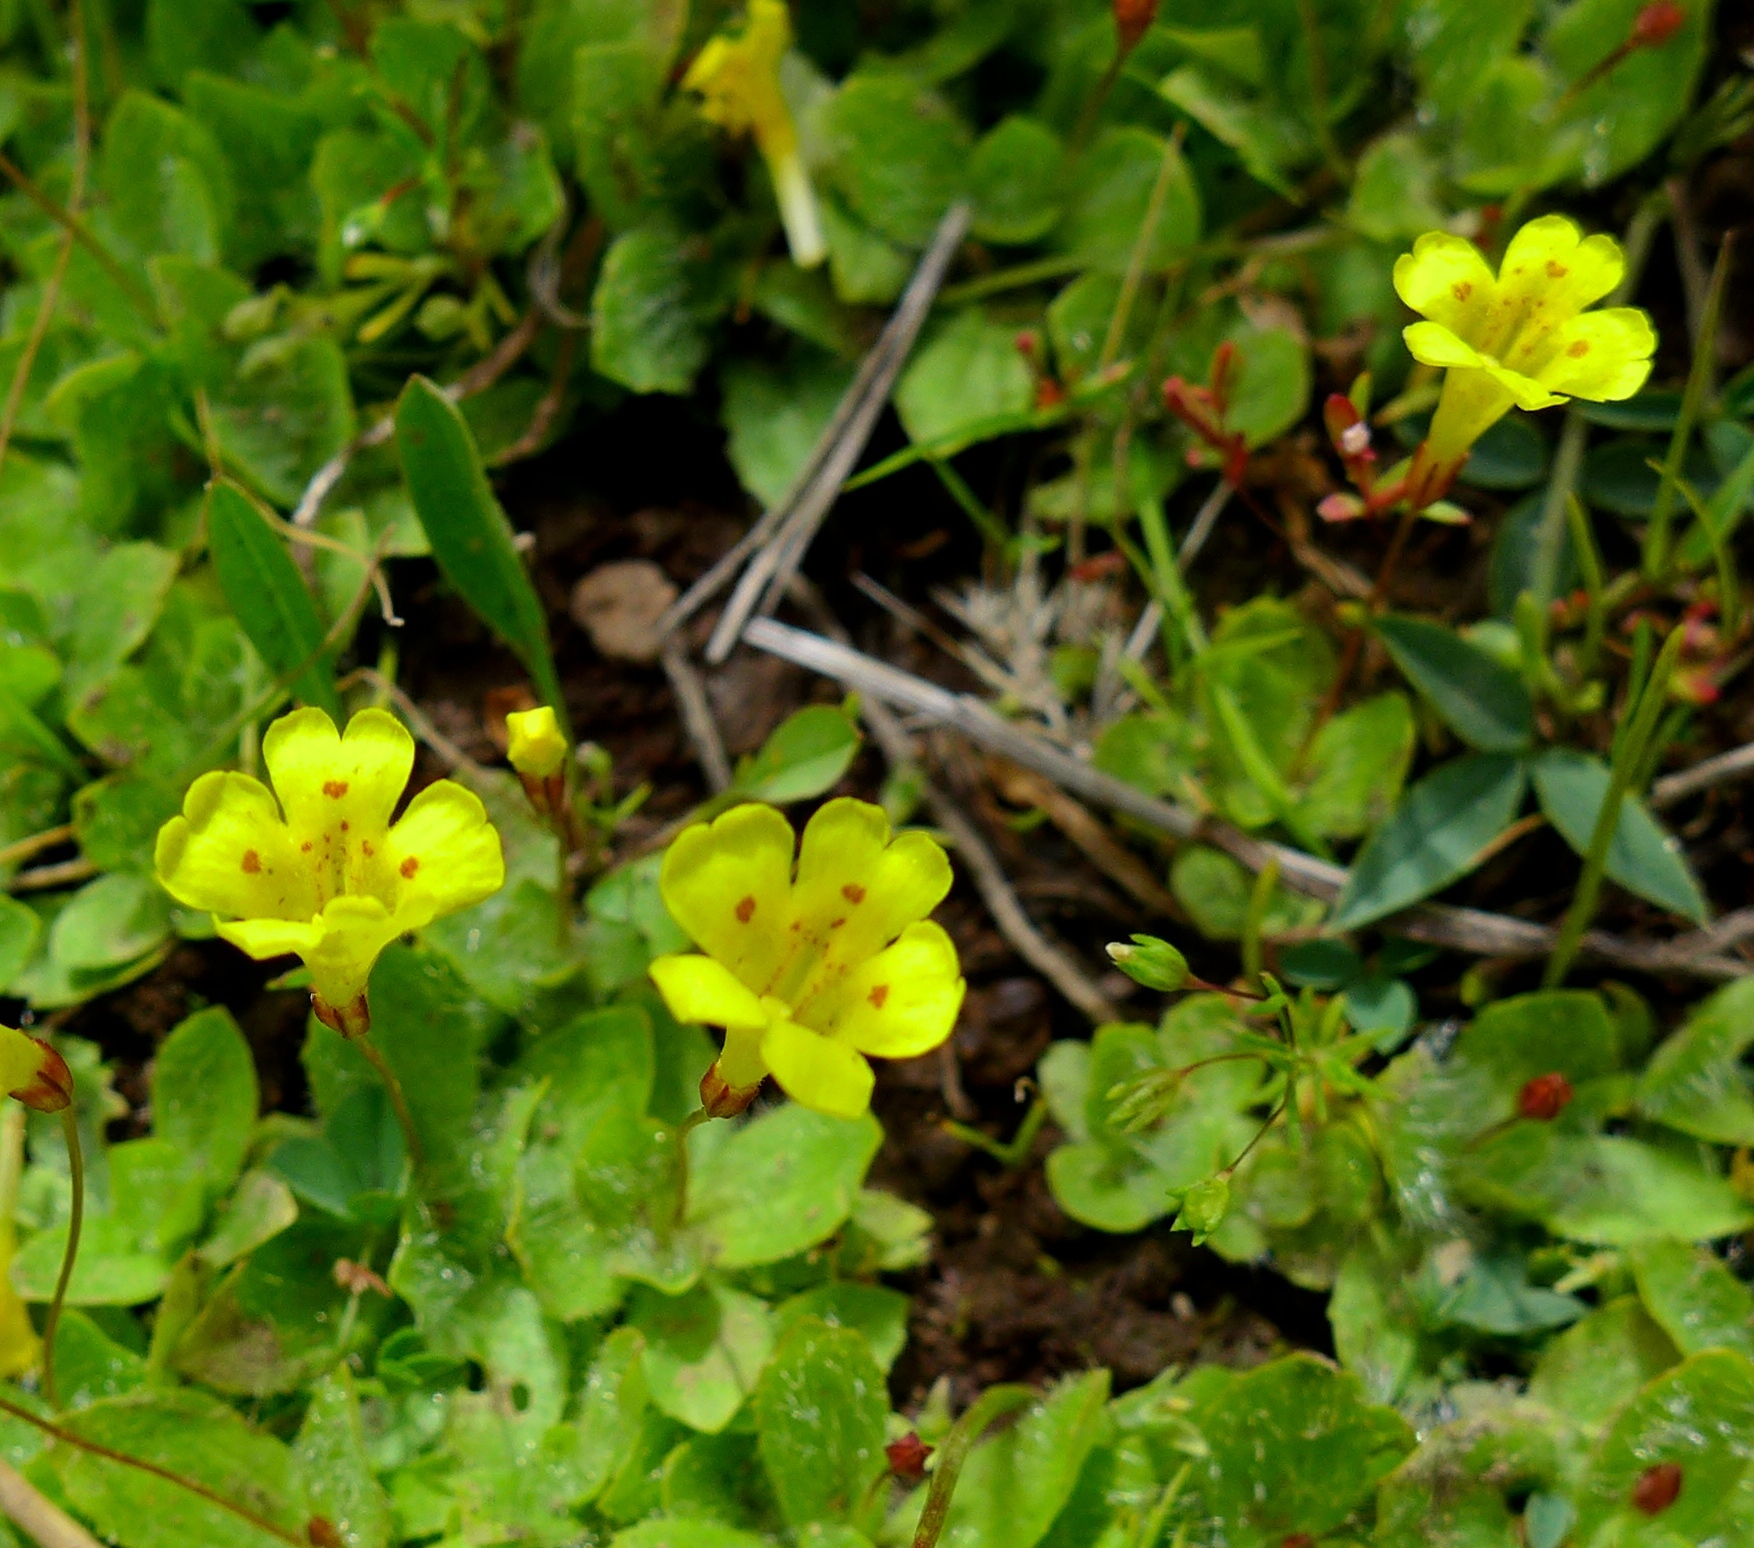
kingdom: Plantae
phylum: Tracheophyta
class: Magnoliopsida
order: Lamiales
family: Phrymaceae
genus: Erythranthe
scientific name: Erythranthe primuloides
